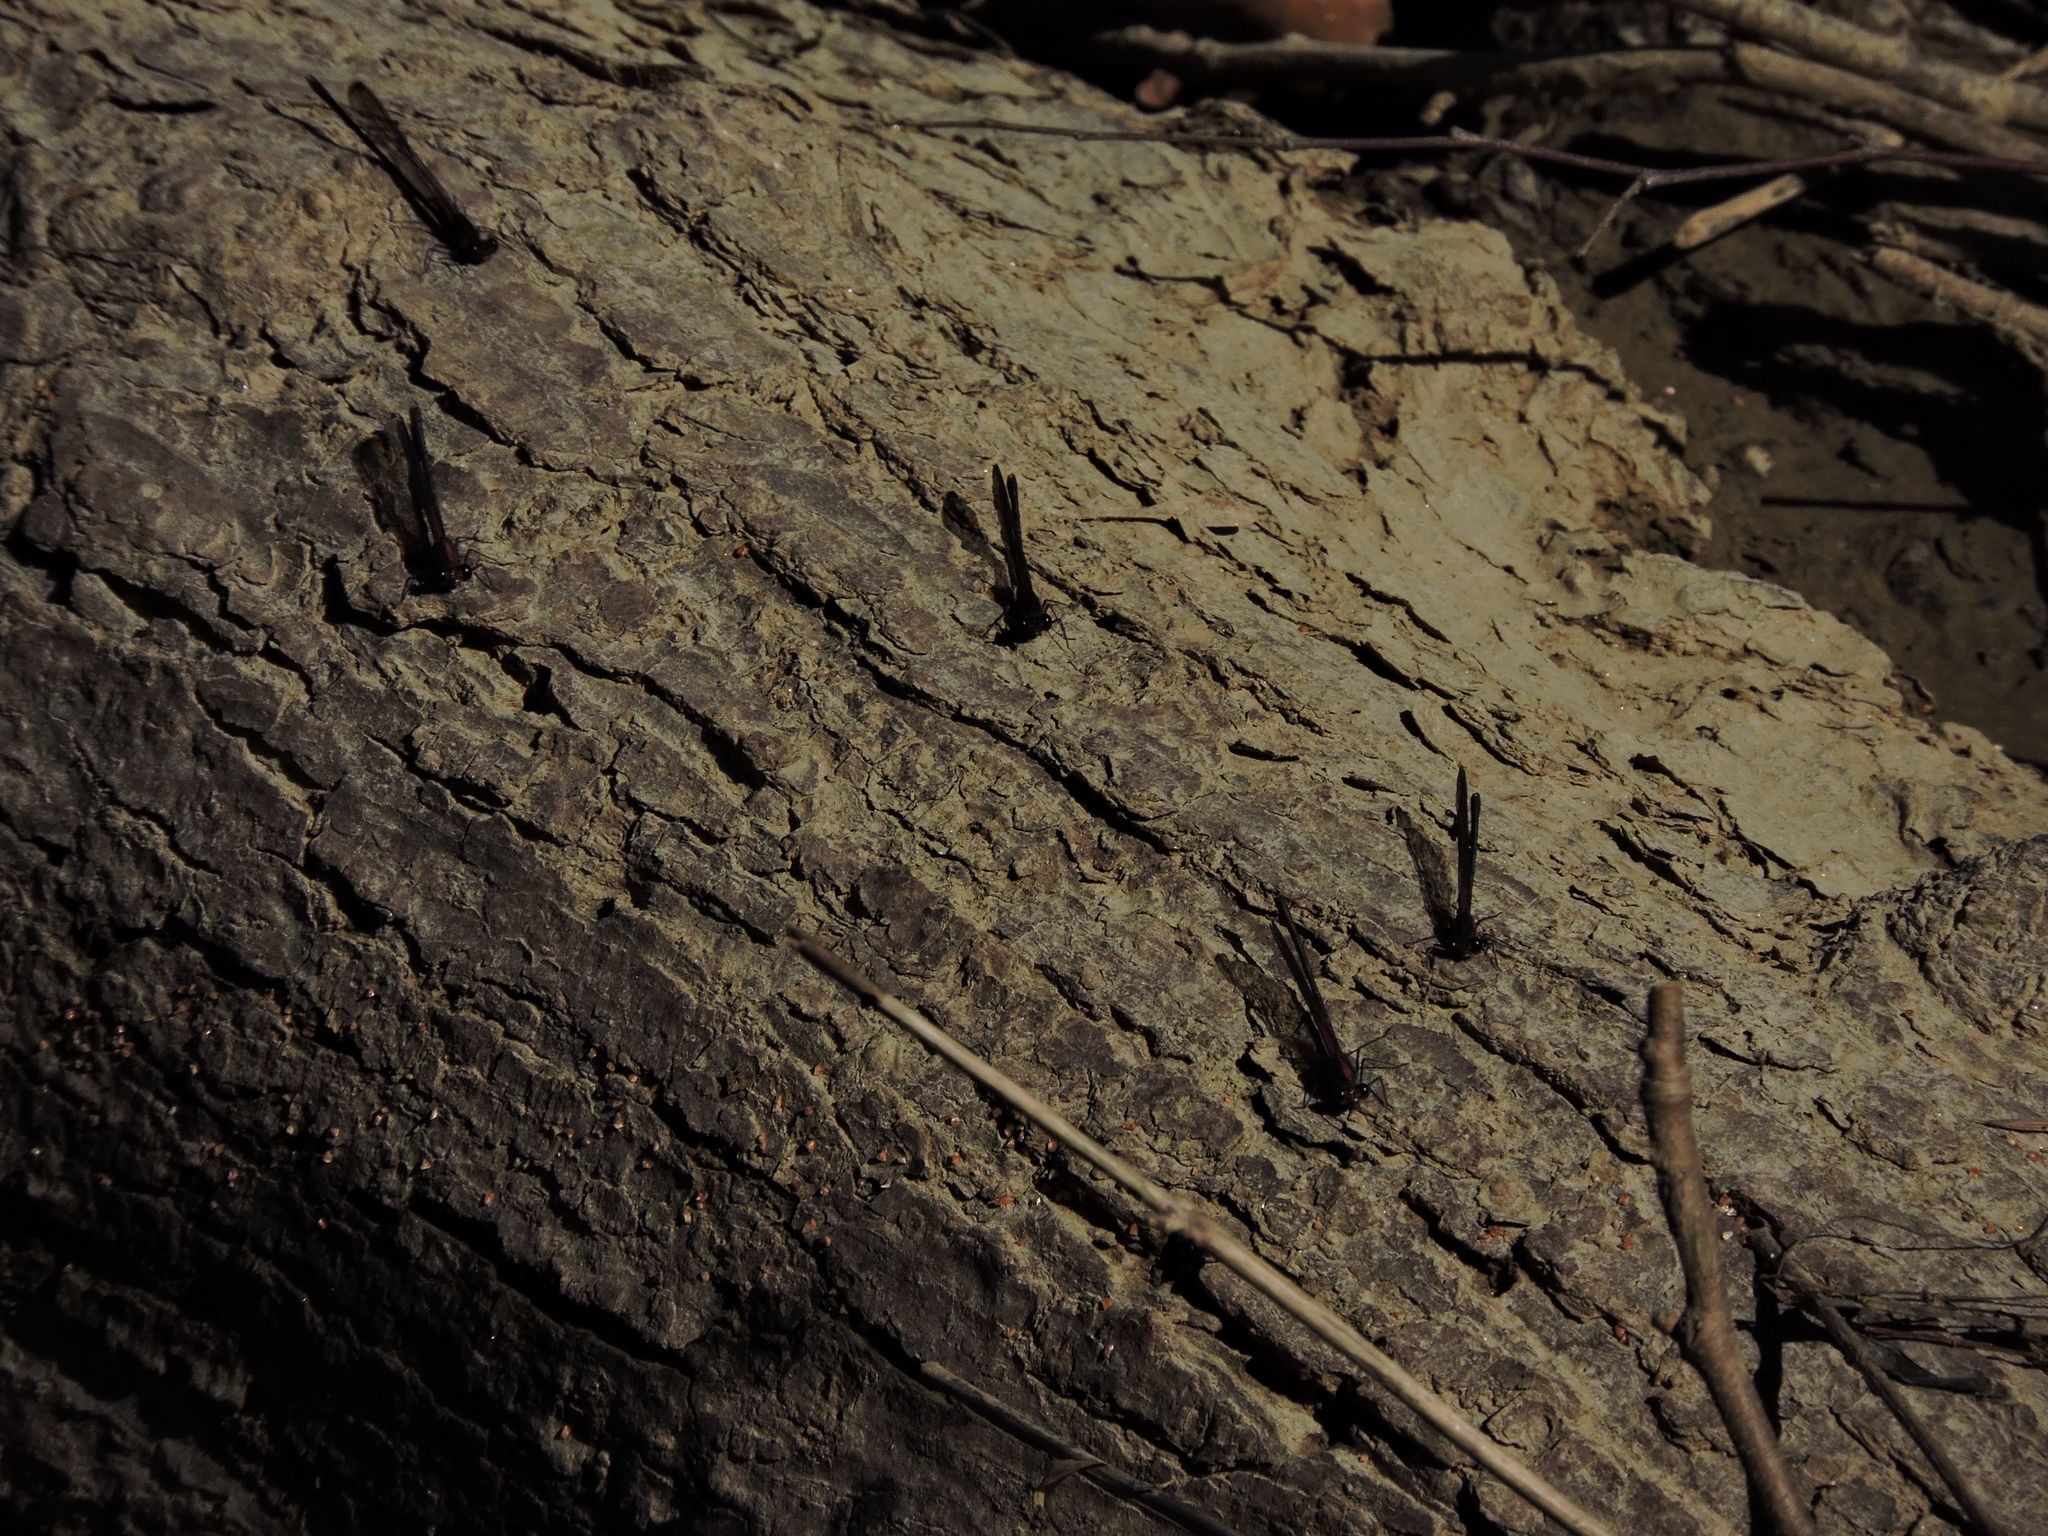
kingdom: Animalia
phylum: Arthropoda
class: Insecta
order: Odonata
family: Calopterygidae
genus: Hetaerina
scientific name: Hetaerina titia
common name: Smoky rubyspot
